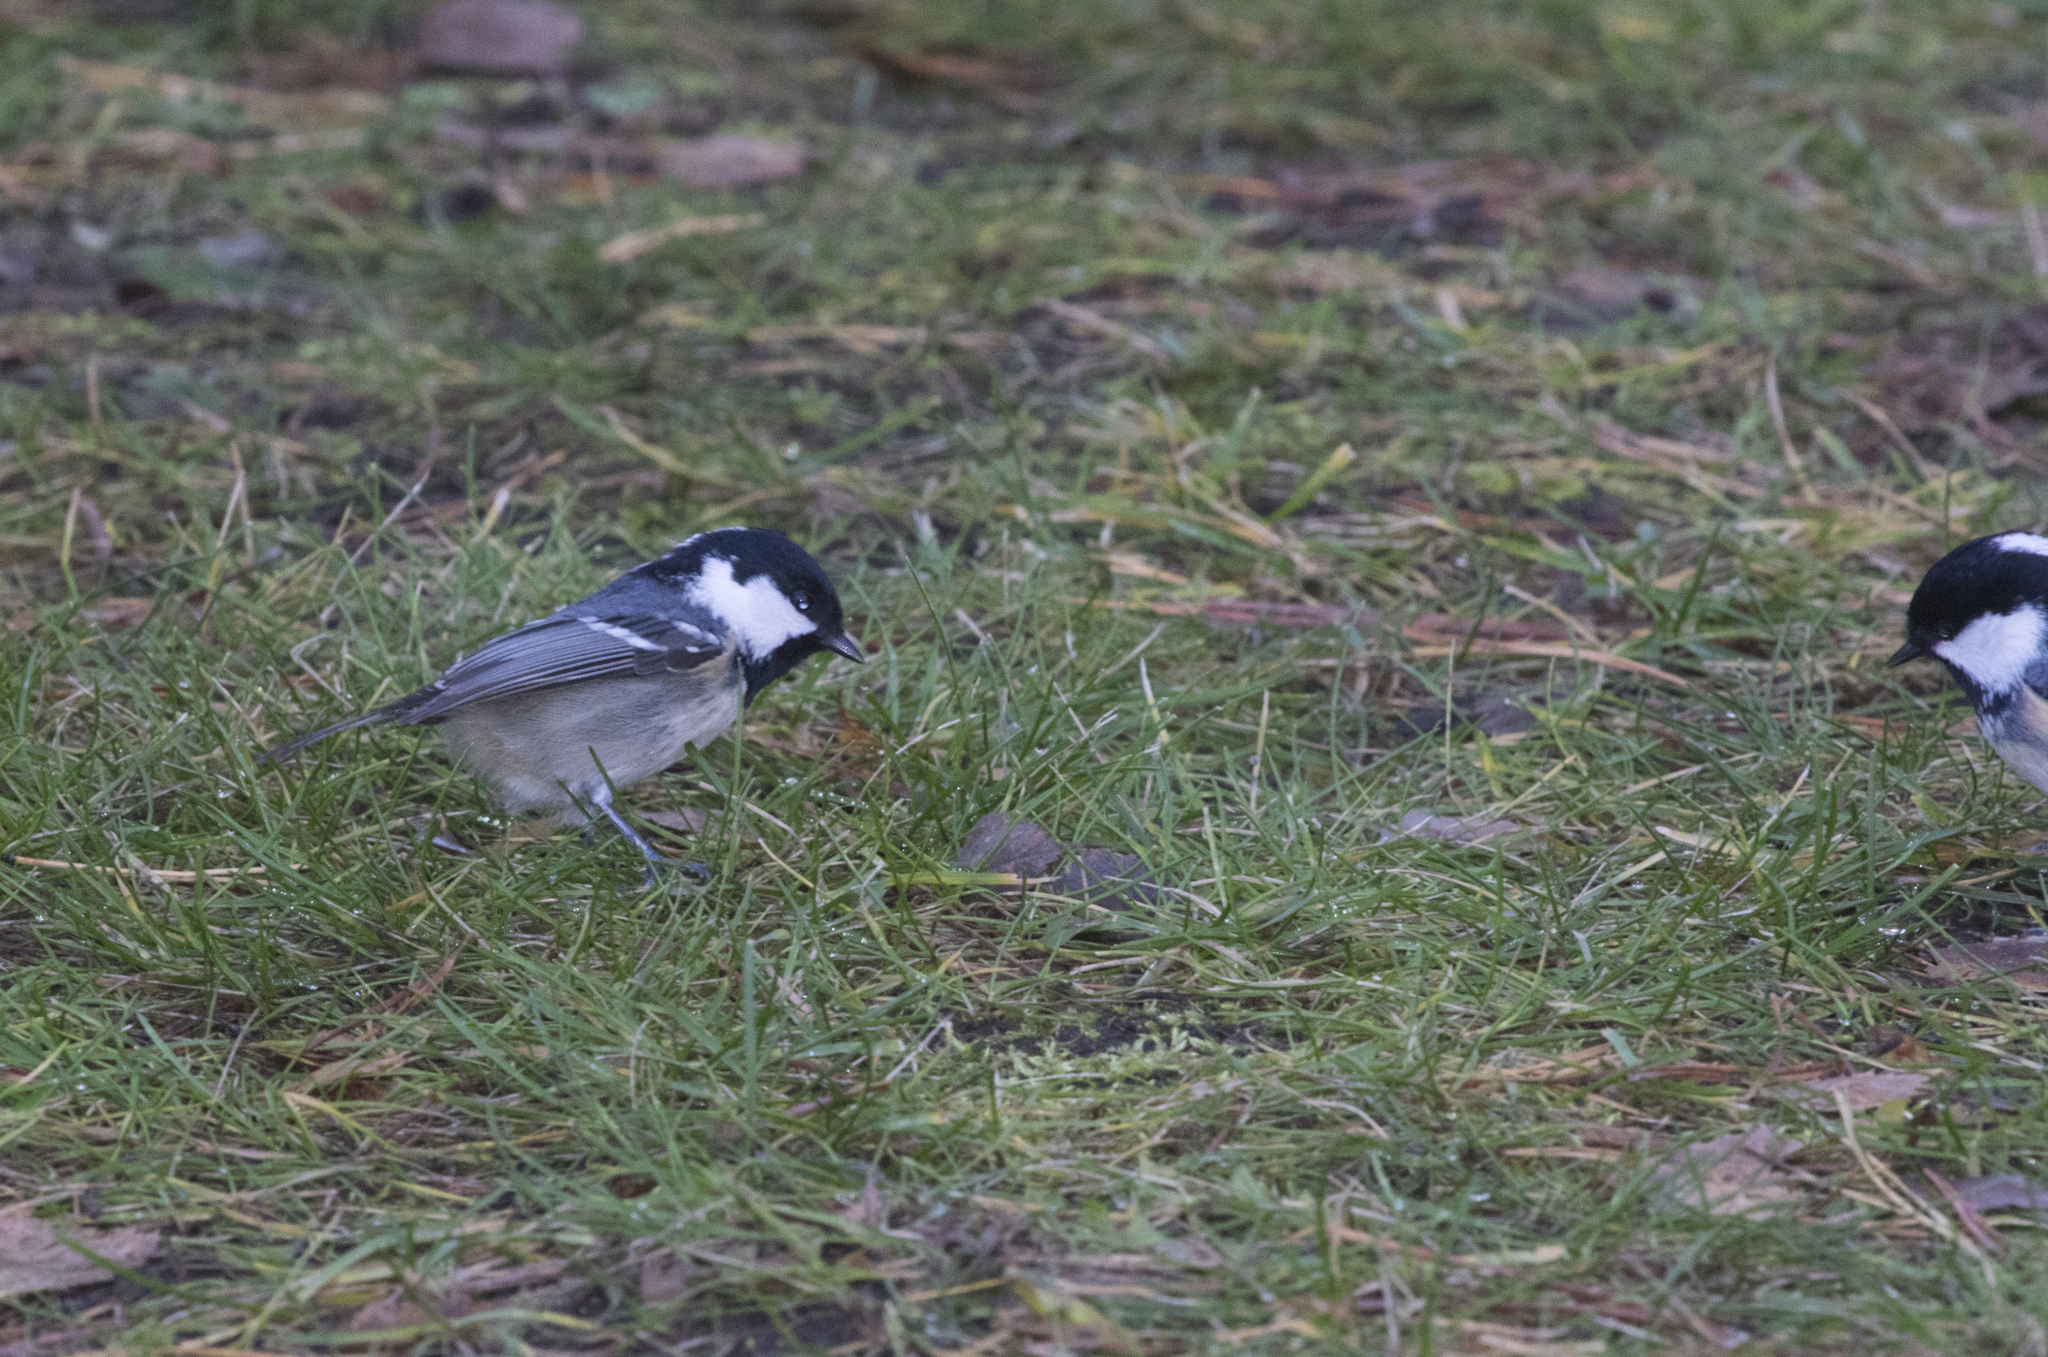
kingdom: Animalia
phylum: Chordata
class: Aves
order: Passeriformes
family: Paridae
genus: Periparus
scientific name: Periparus ater
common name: Coal tit
